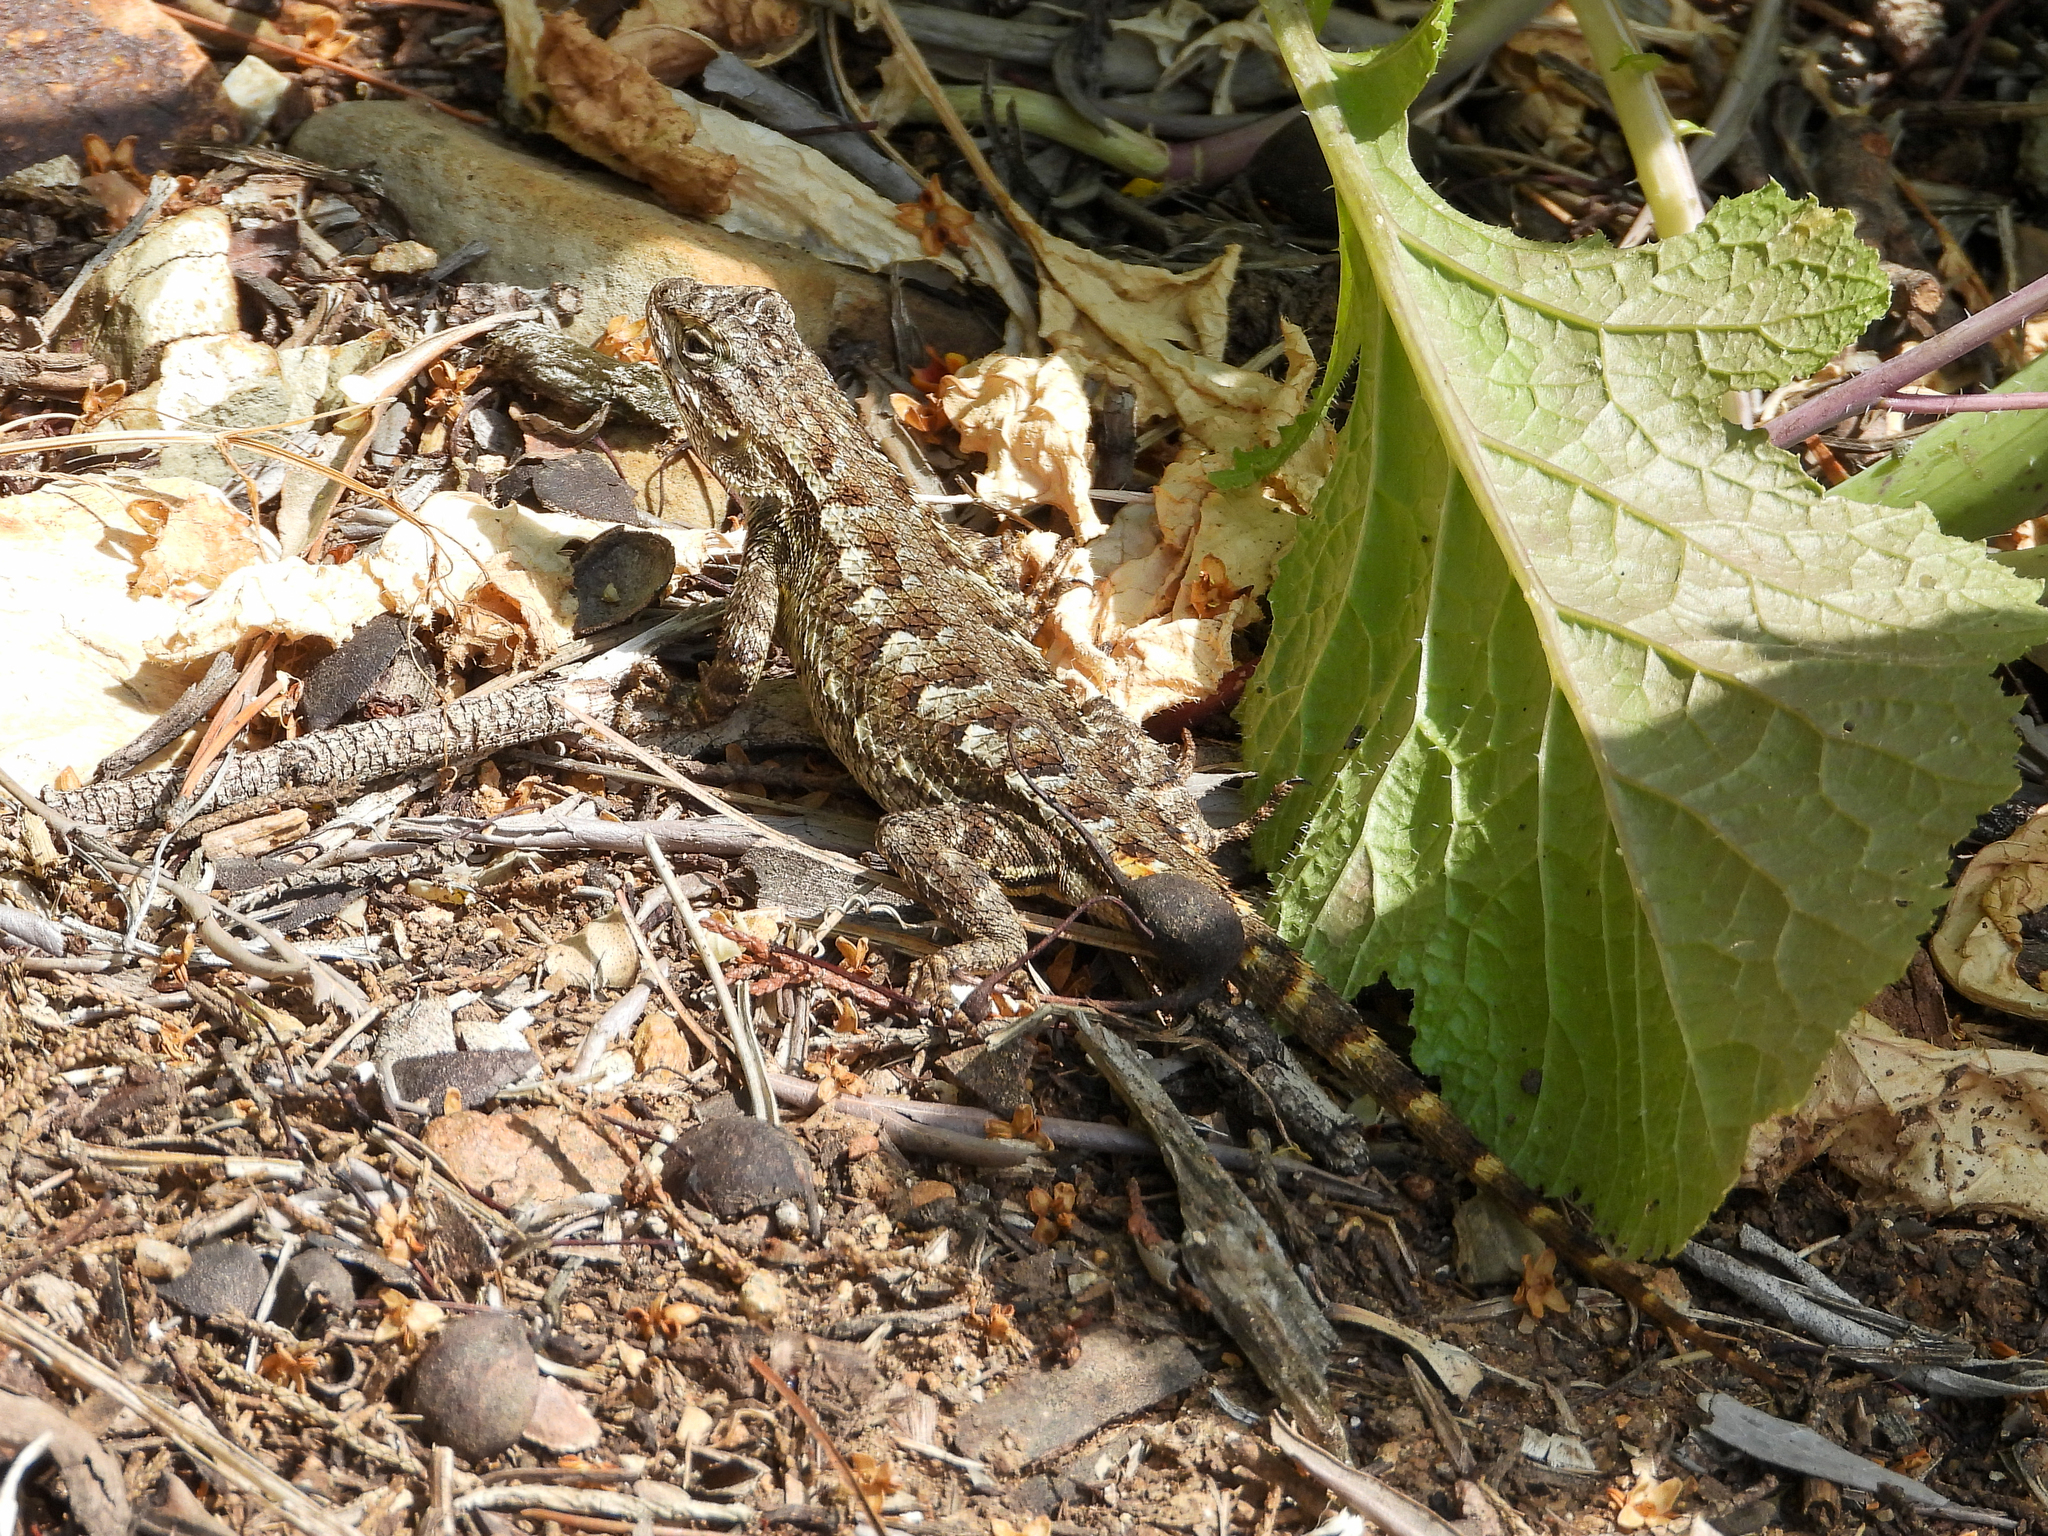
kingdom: Animalia
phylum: Chordata
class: Squamata
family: Phrynosomatidae
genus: Sceloporus
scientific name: Sceloporus occidentalis
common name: Western fence lizard
